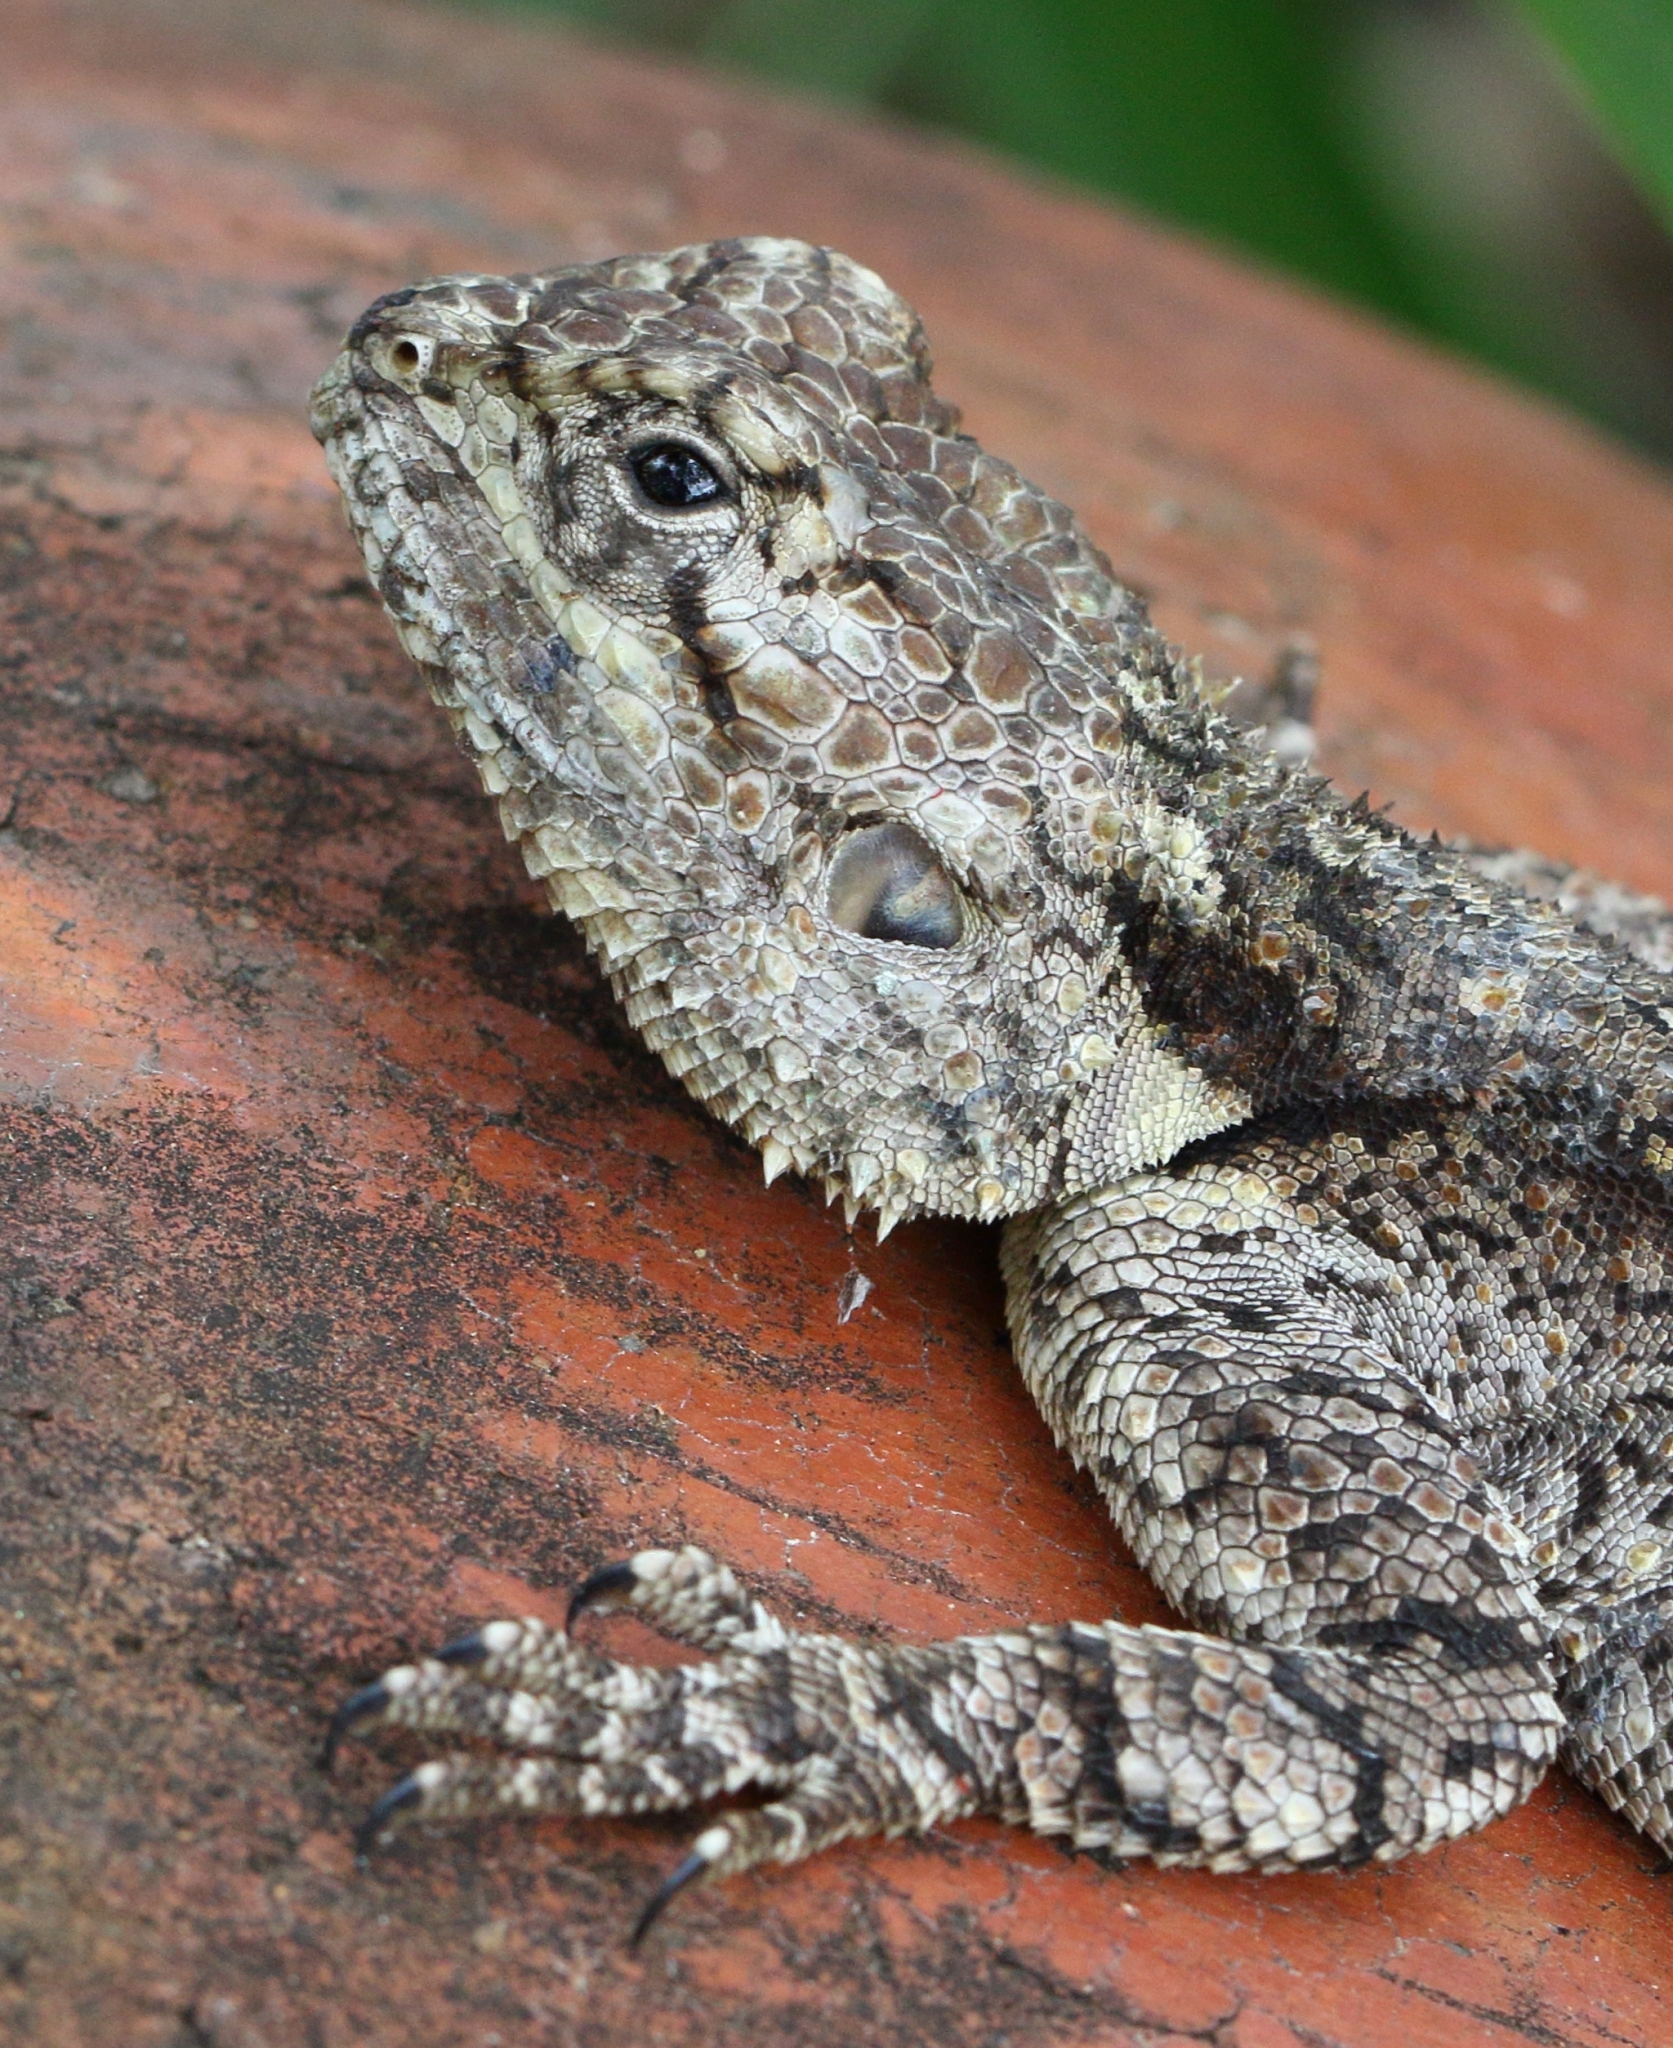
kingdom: Animalia
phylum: Chordata
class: Squamata
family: Agamidae
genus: Acanthocercus
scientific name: Acanthocercus atricollis
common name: Southern tree agama
